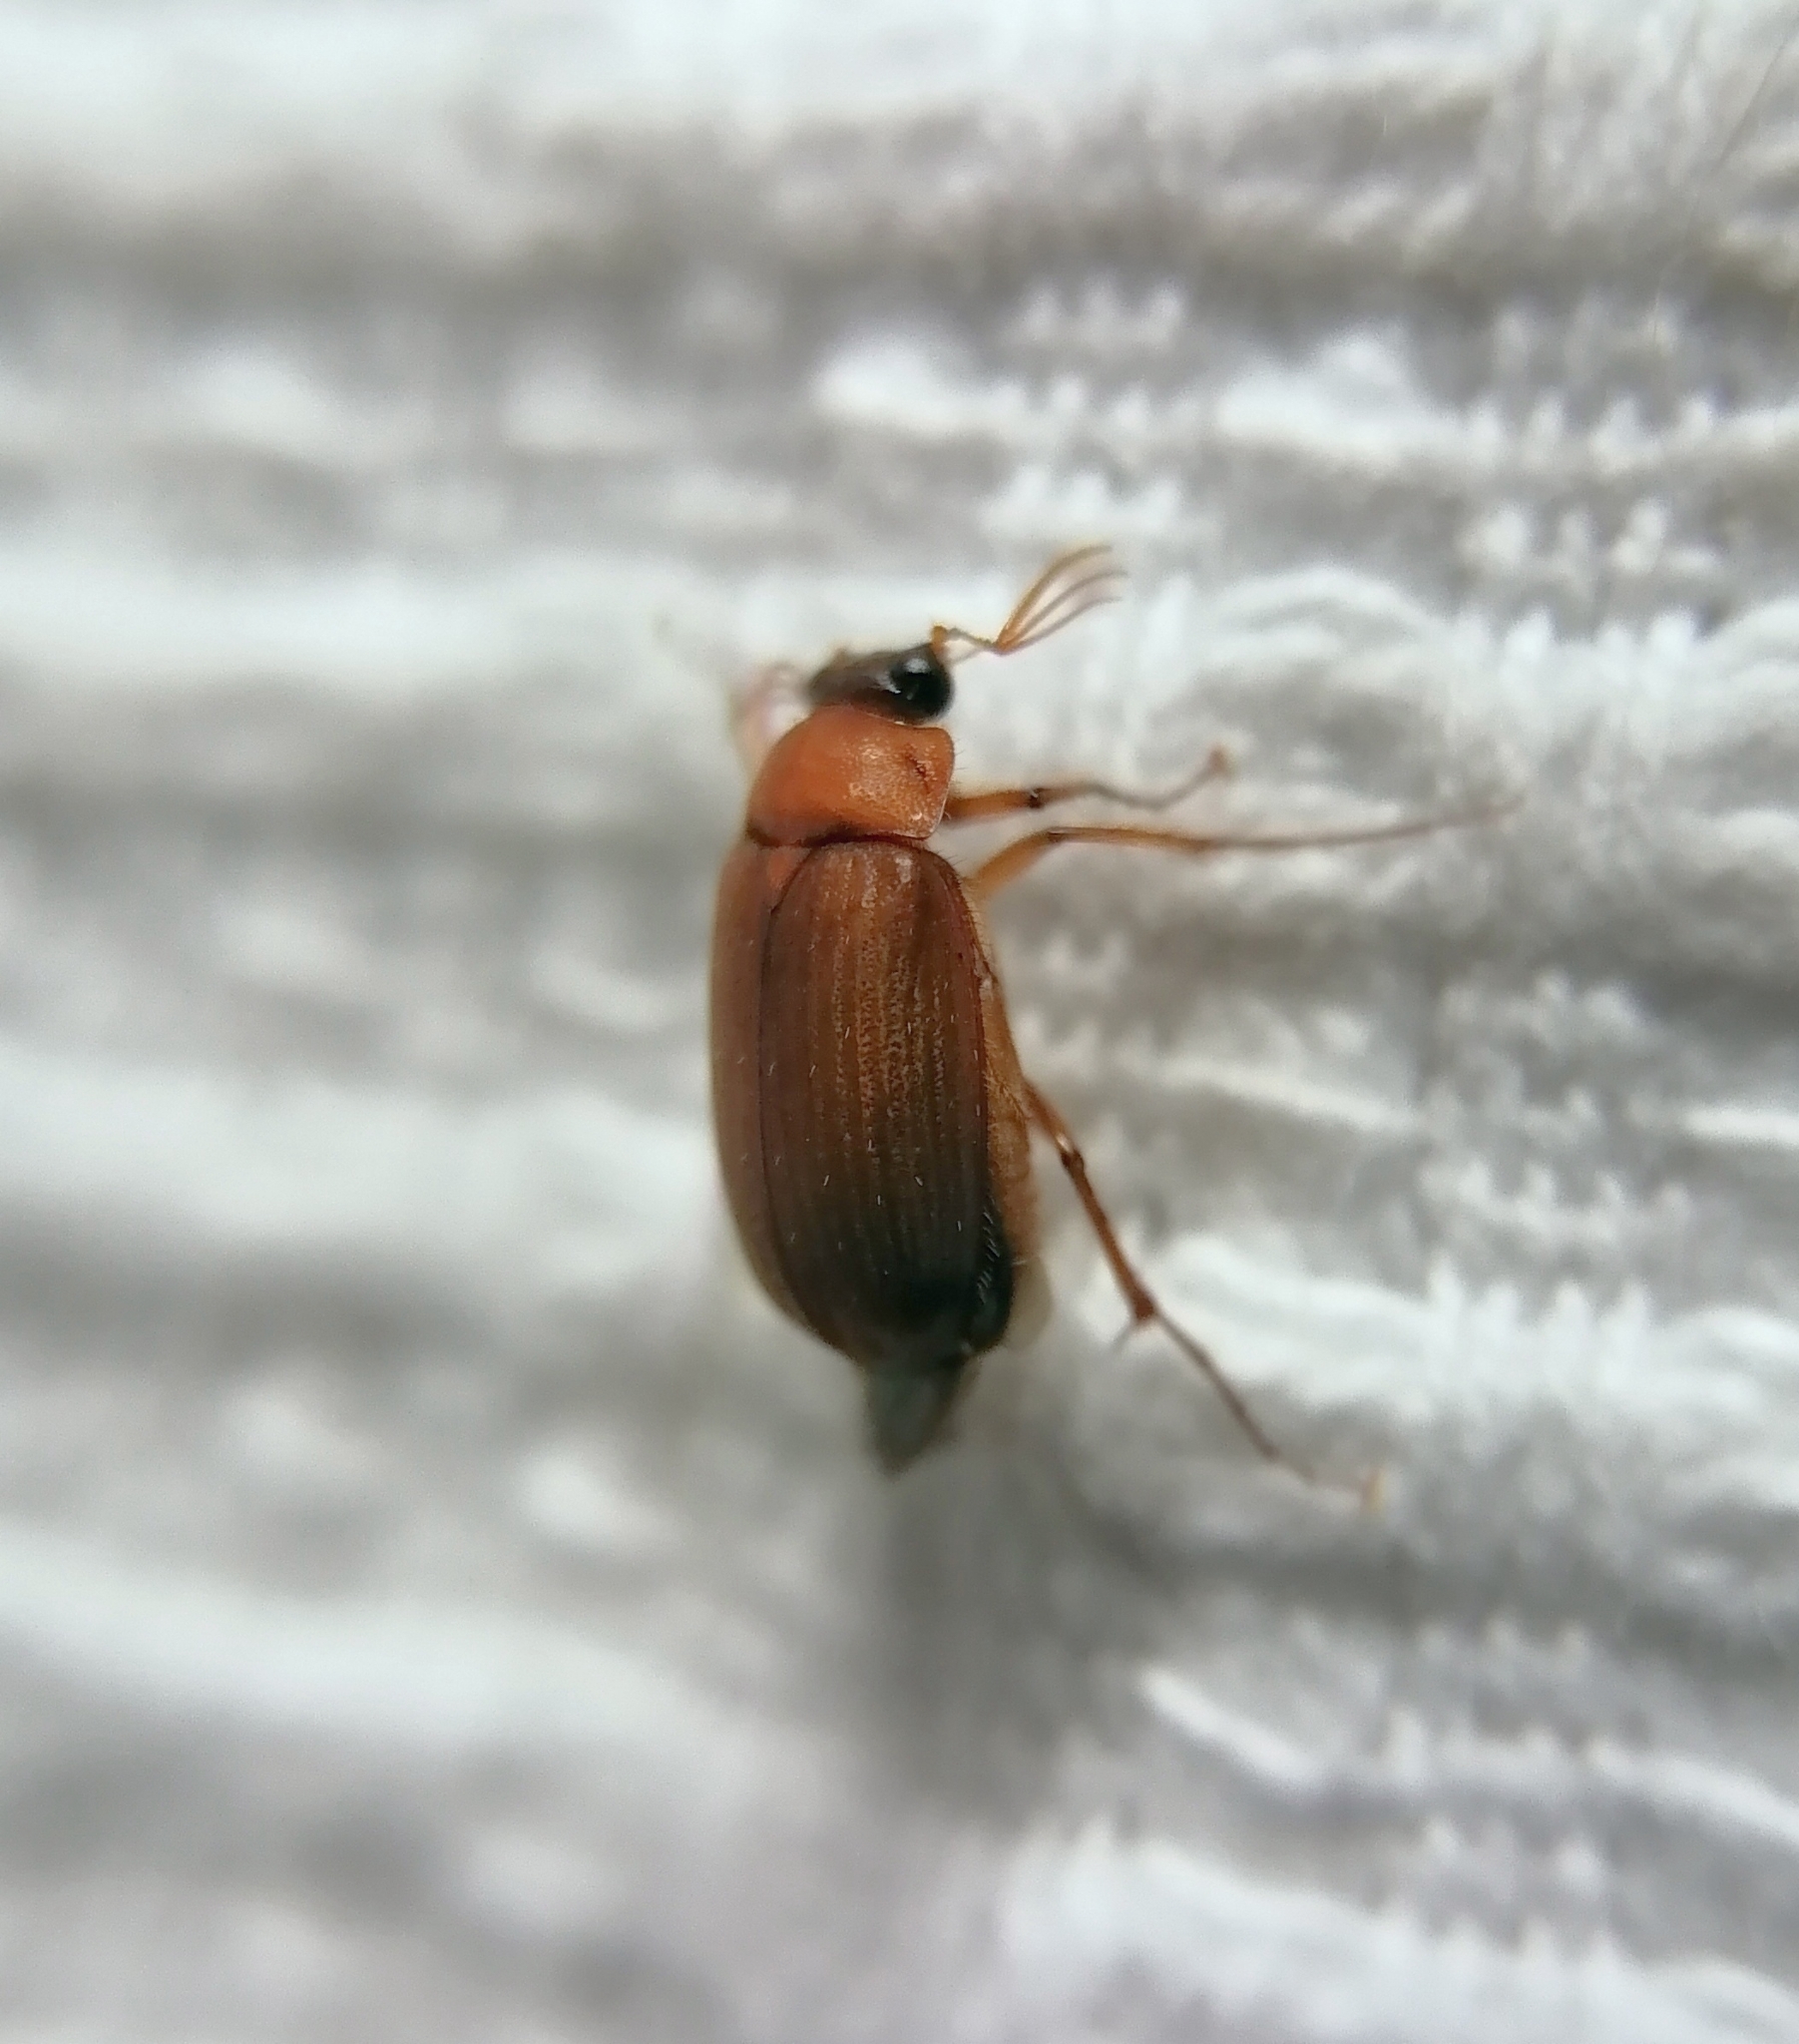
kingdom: Animalia
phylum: Arthropoda
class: Insecta
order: Coleoptera
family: Scarabaeidae
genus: Serica
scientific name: Serica brunnea
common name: Brown chafer
